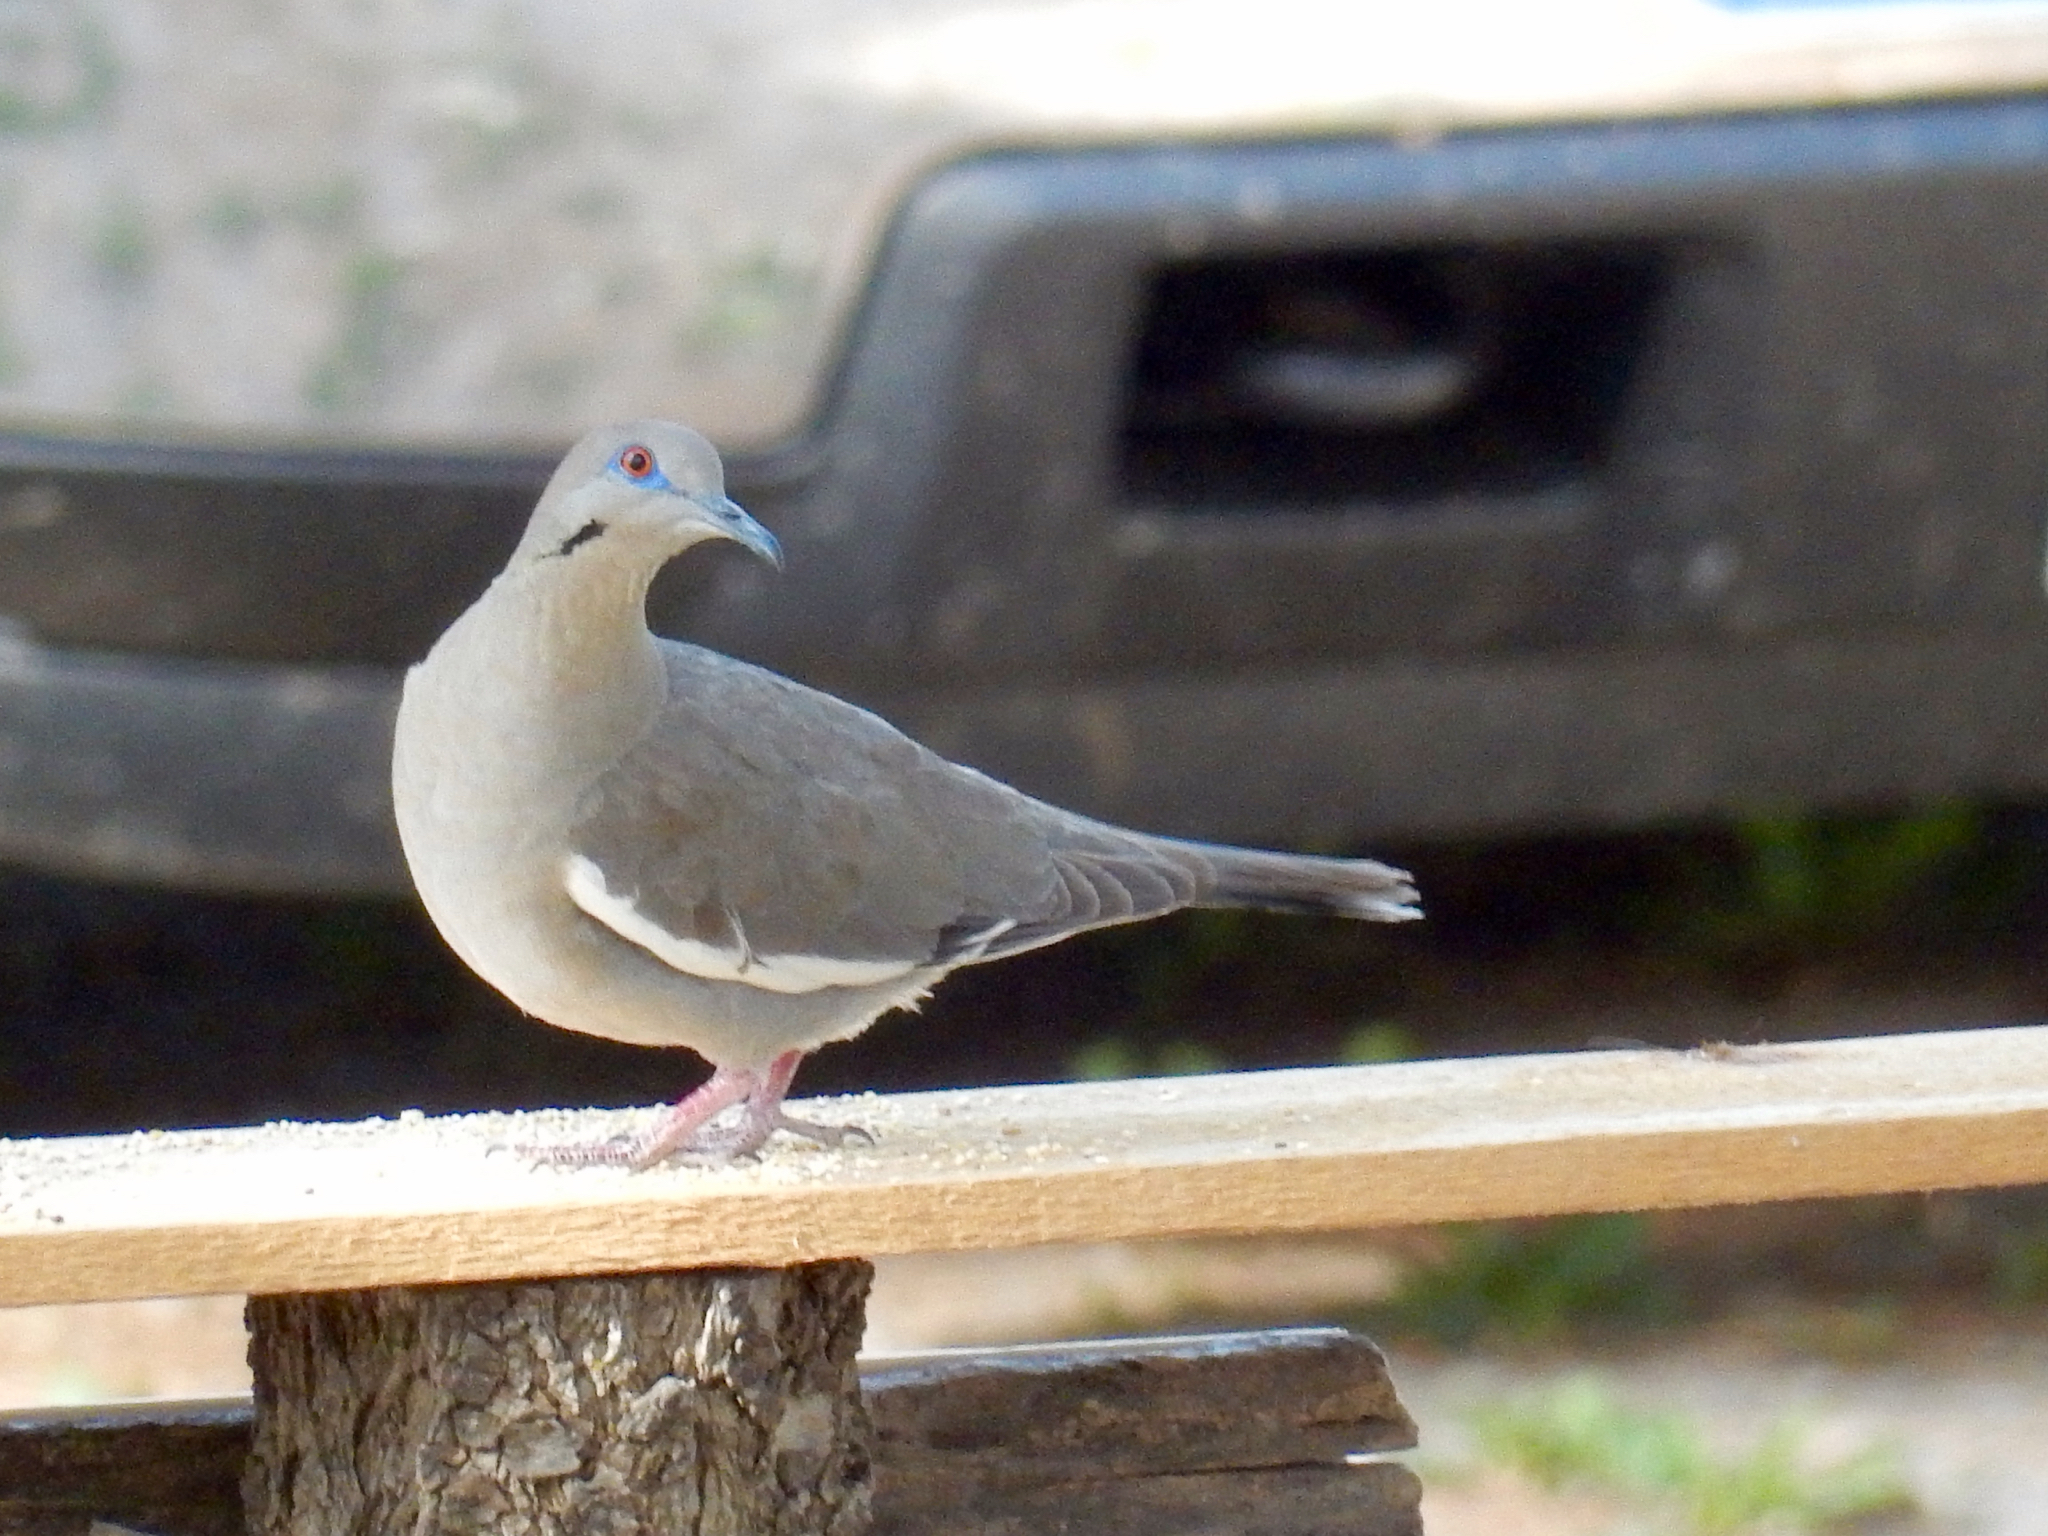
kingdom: Animalia
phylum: Chordata
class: Aves
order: Columbiformes
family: Columbidae
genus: Zenaida
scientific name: Zenaida asiatica
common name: White-winged dove
